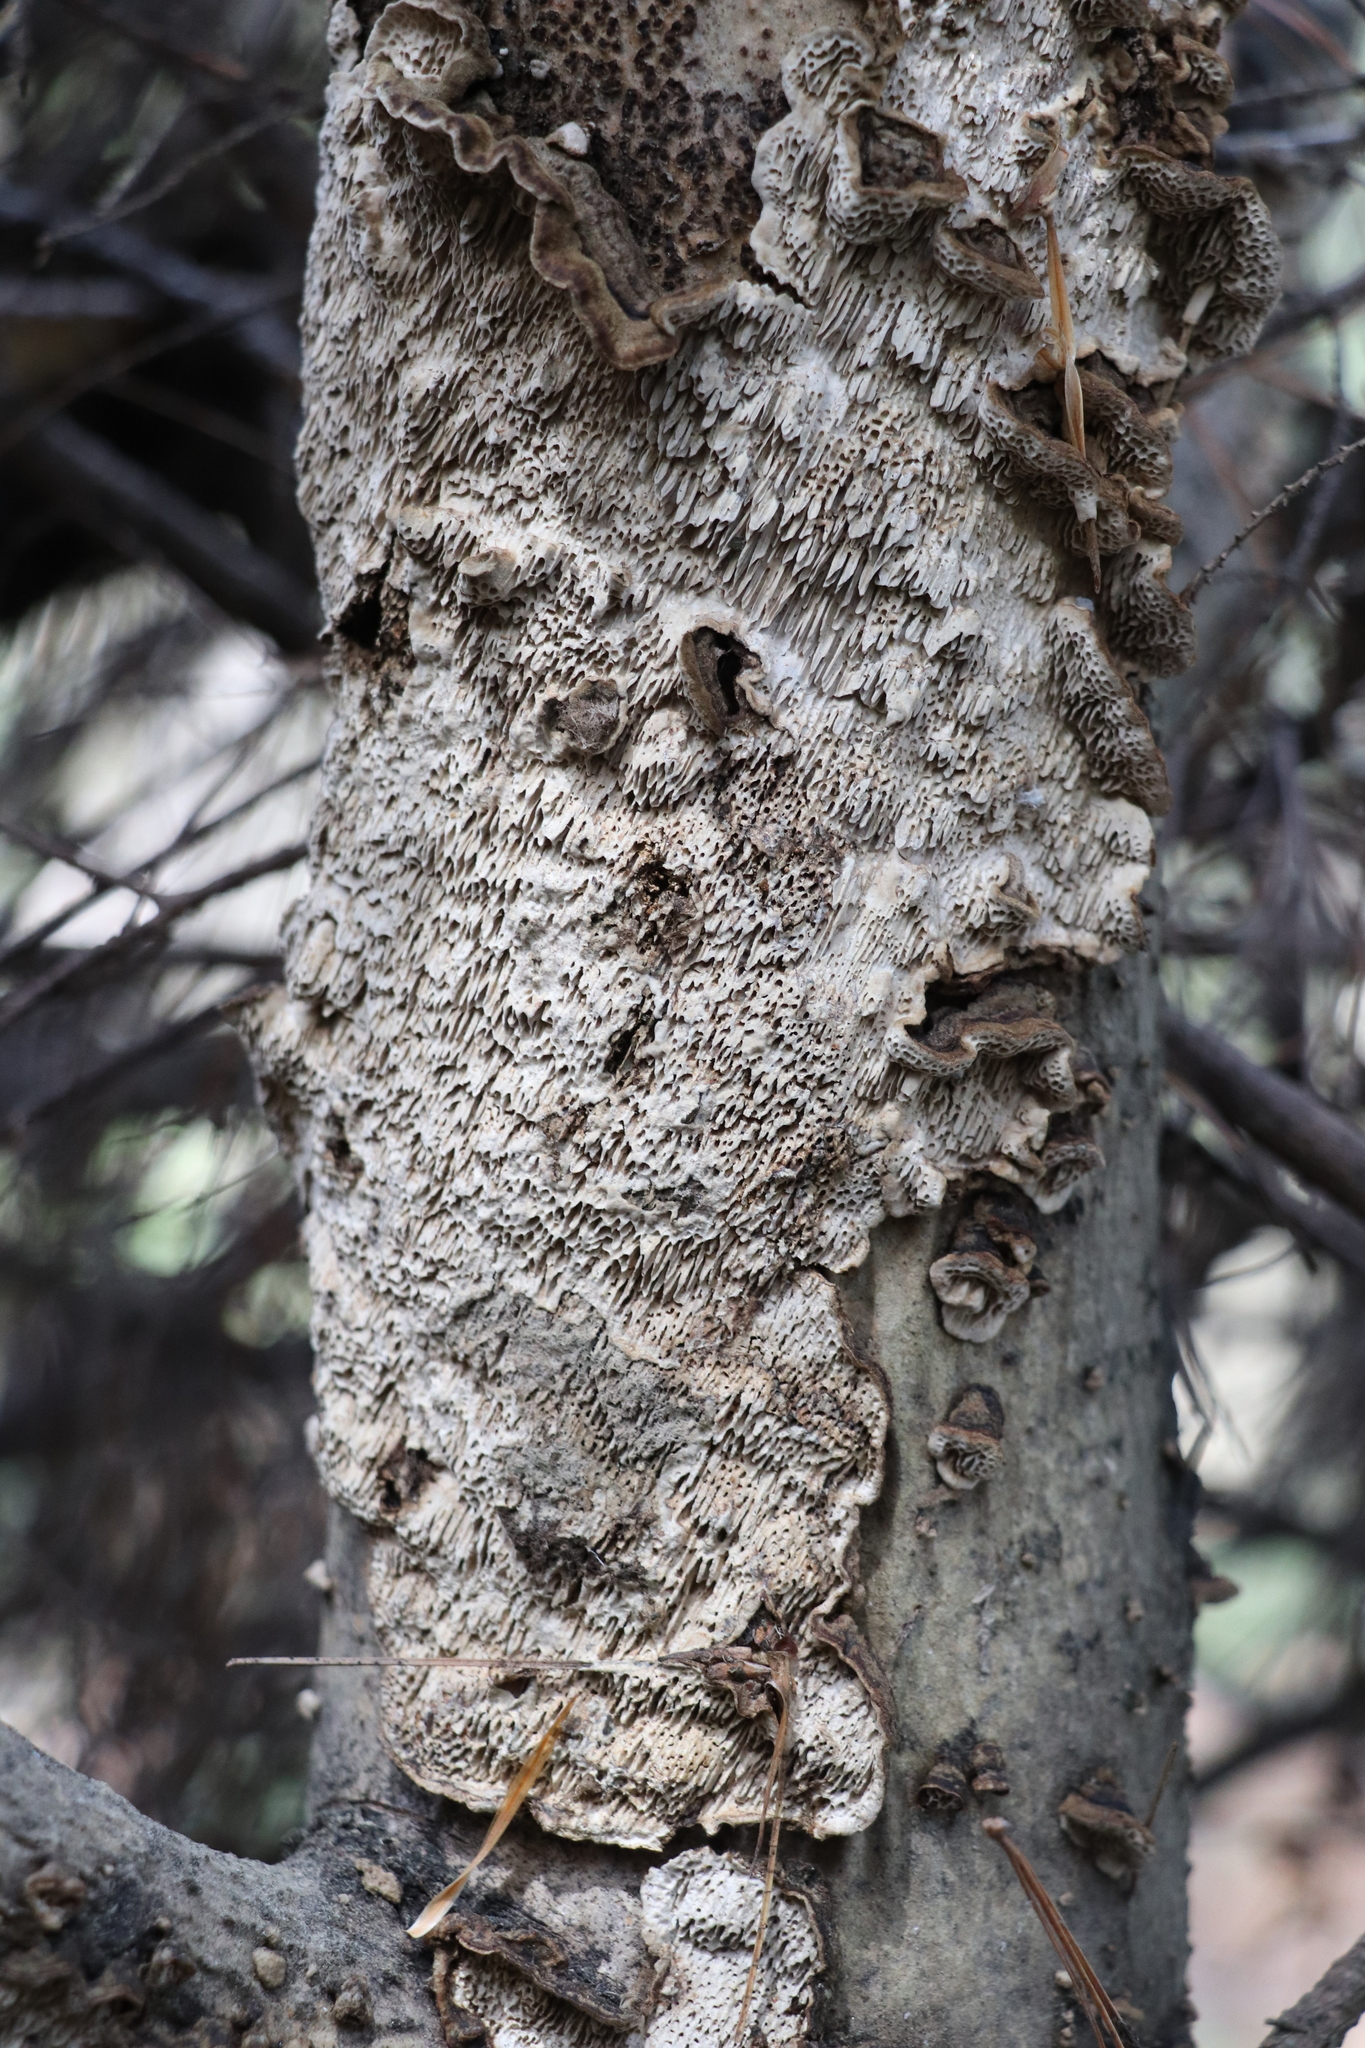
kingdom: Fungi
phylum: Basidiomycota
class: Agaricomycetes
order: Polyporales
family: Polyporaceae
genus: Podofomes
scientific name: Podofomes mollis
